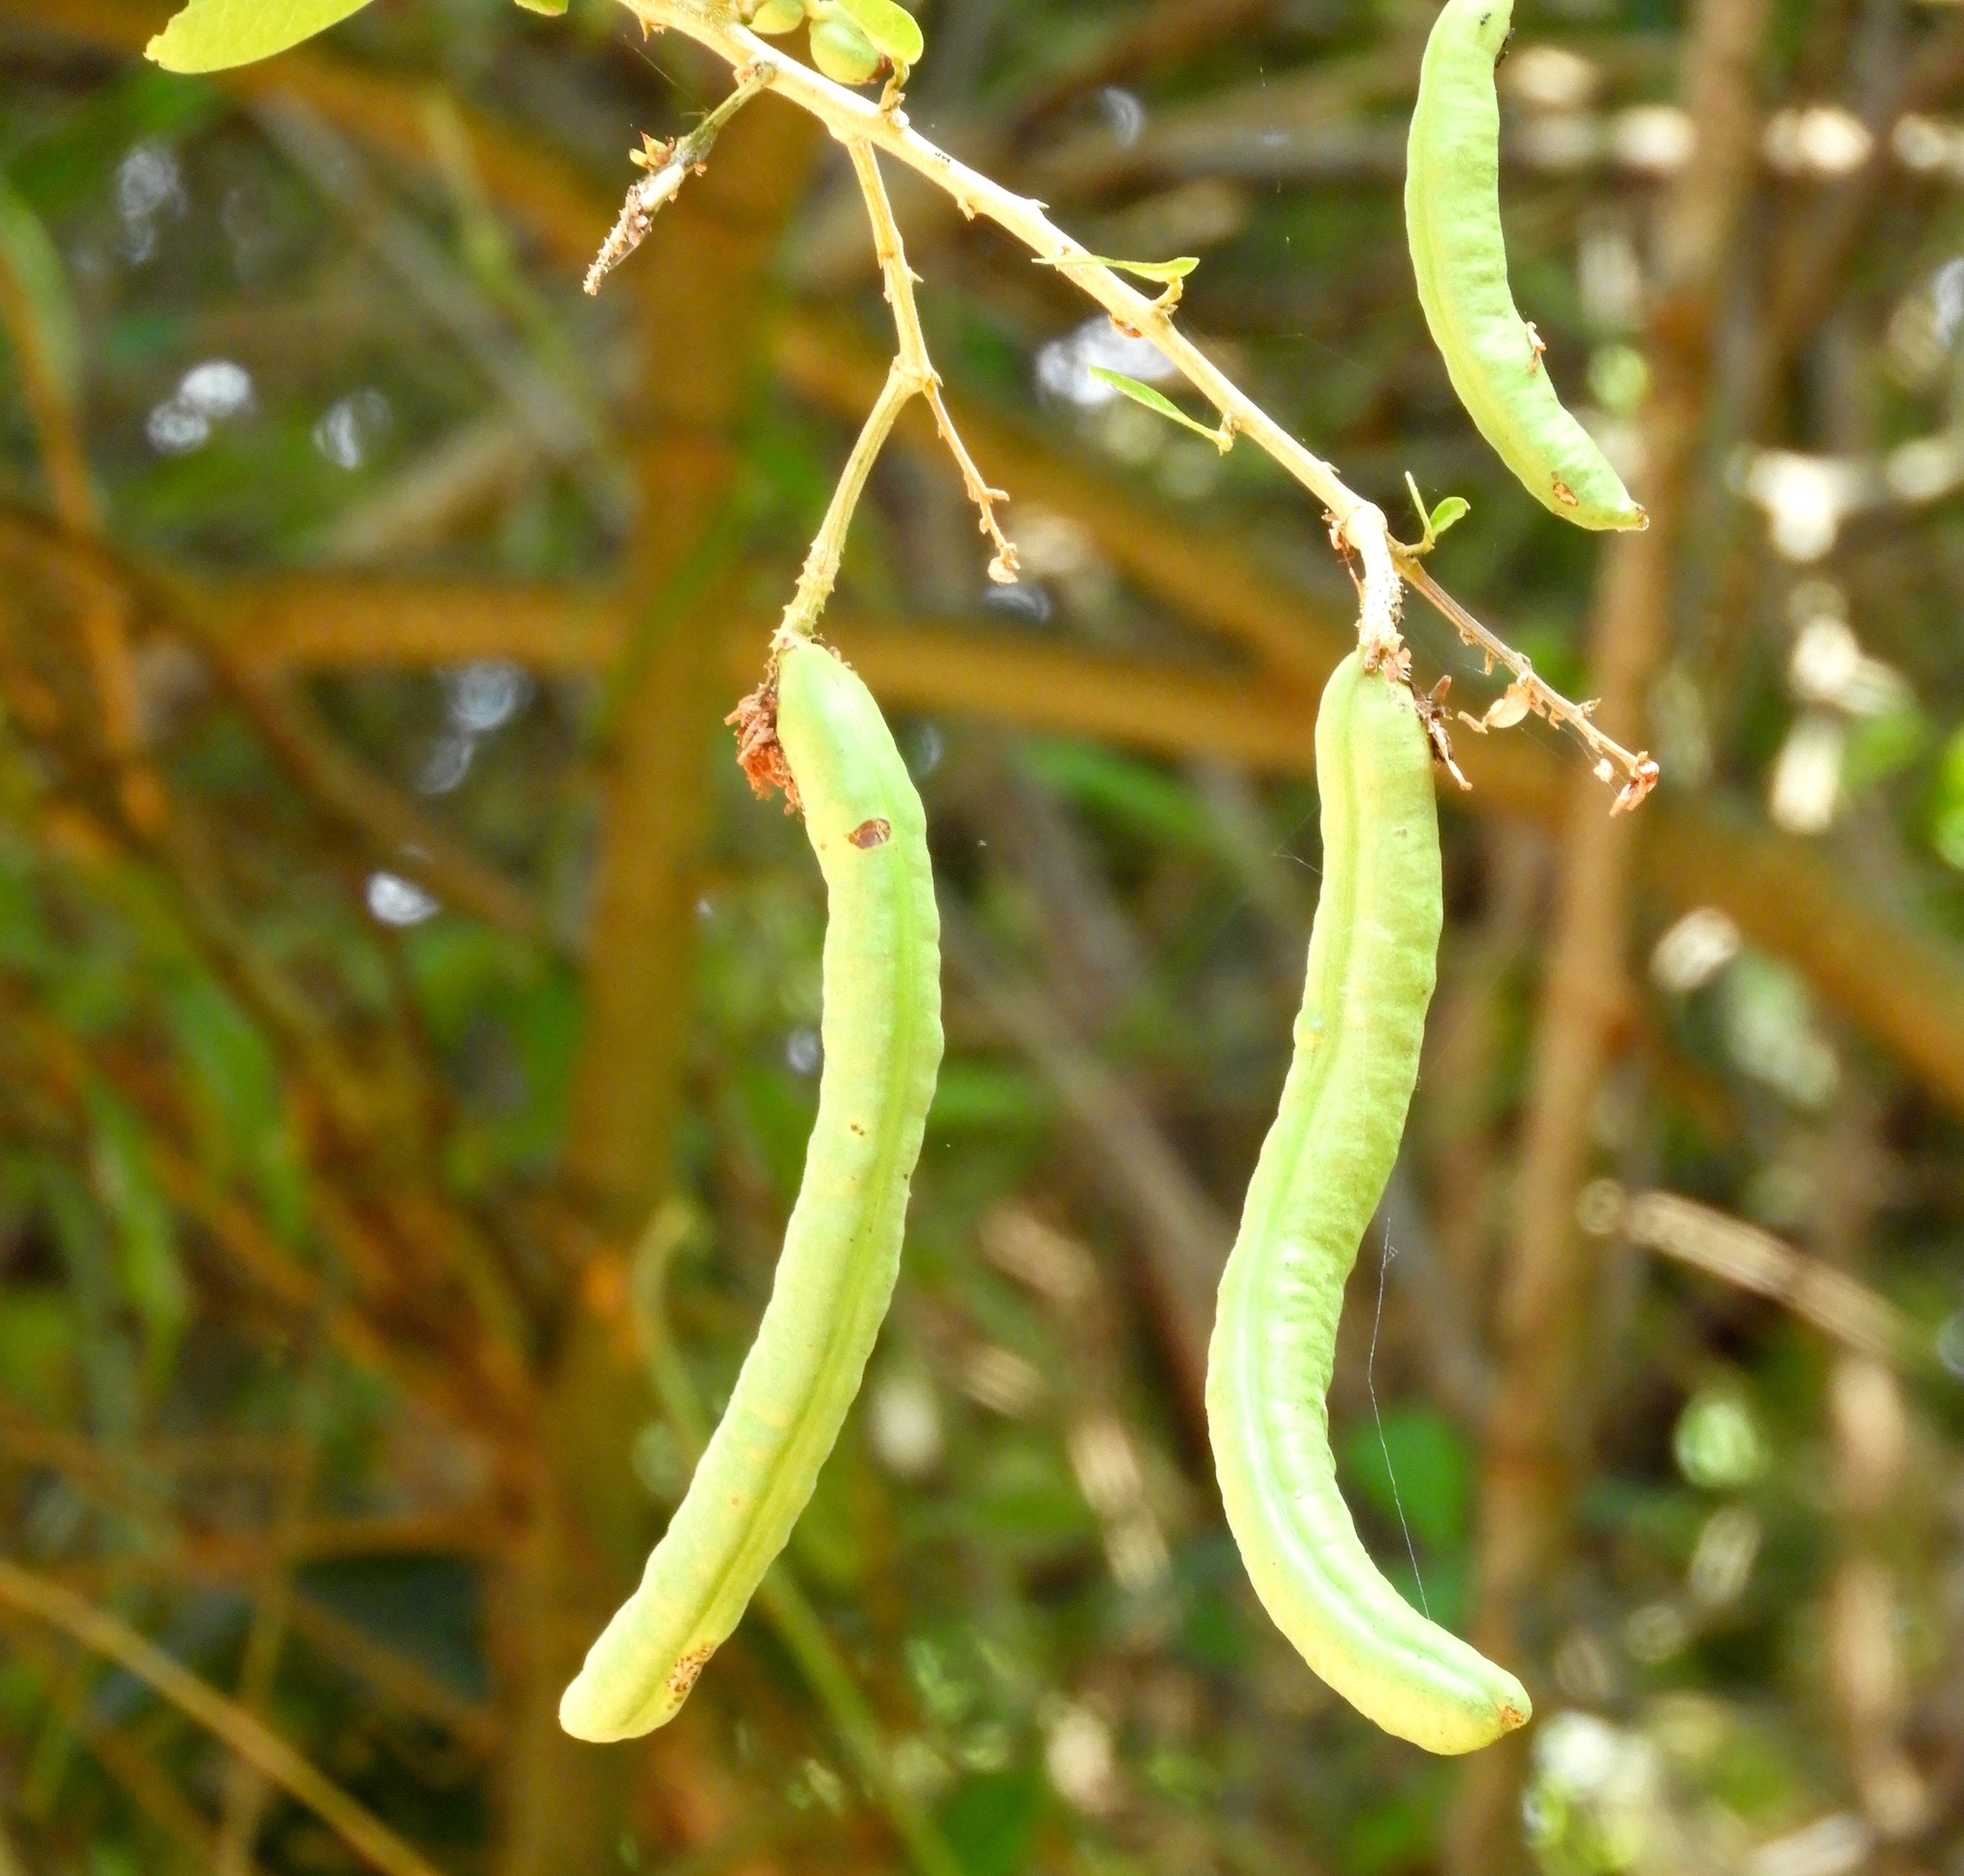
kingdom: Plantae
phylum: Tracheophyta
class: Magnoliopsida
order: Fabales
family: Fabaceae
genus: Pithecellobium
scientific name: Pithecellobium lanceolatum
